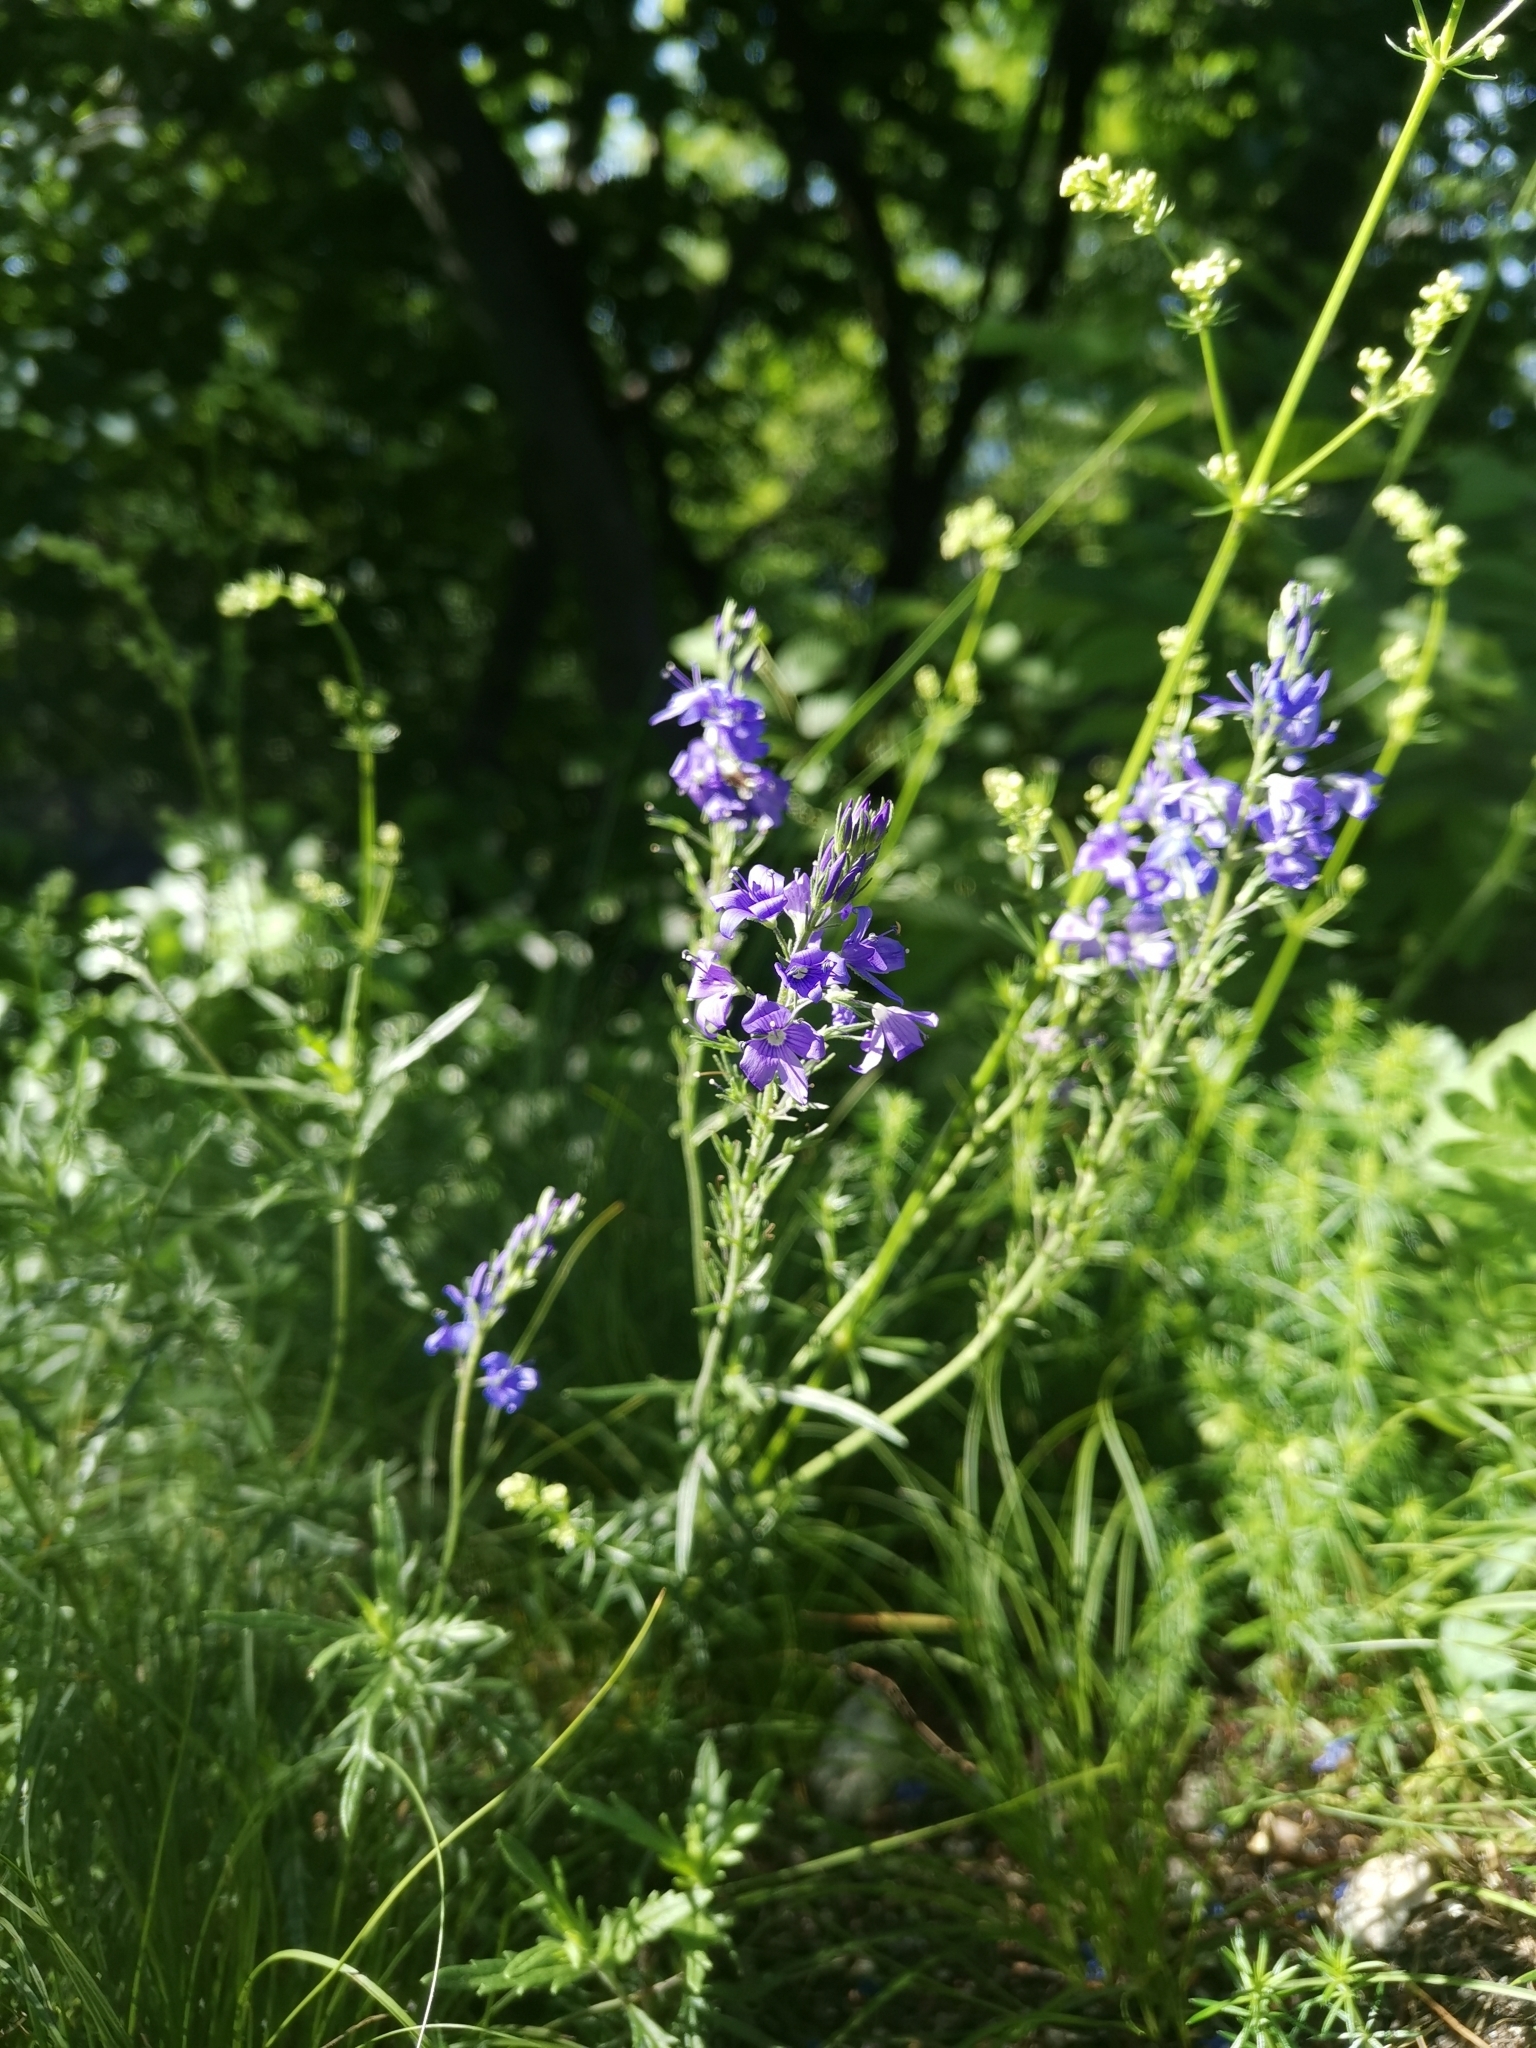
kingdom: Plantae
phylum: Tracheophyta
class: Magnoliopsida
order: Lamiales
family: Plantaginaceae
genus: Veronica
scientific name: Veronica austriaca
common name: Large speedwell
